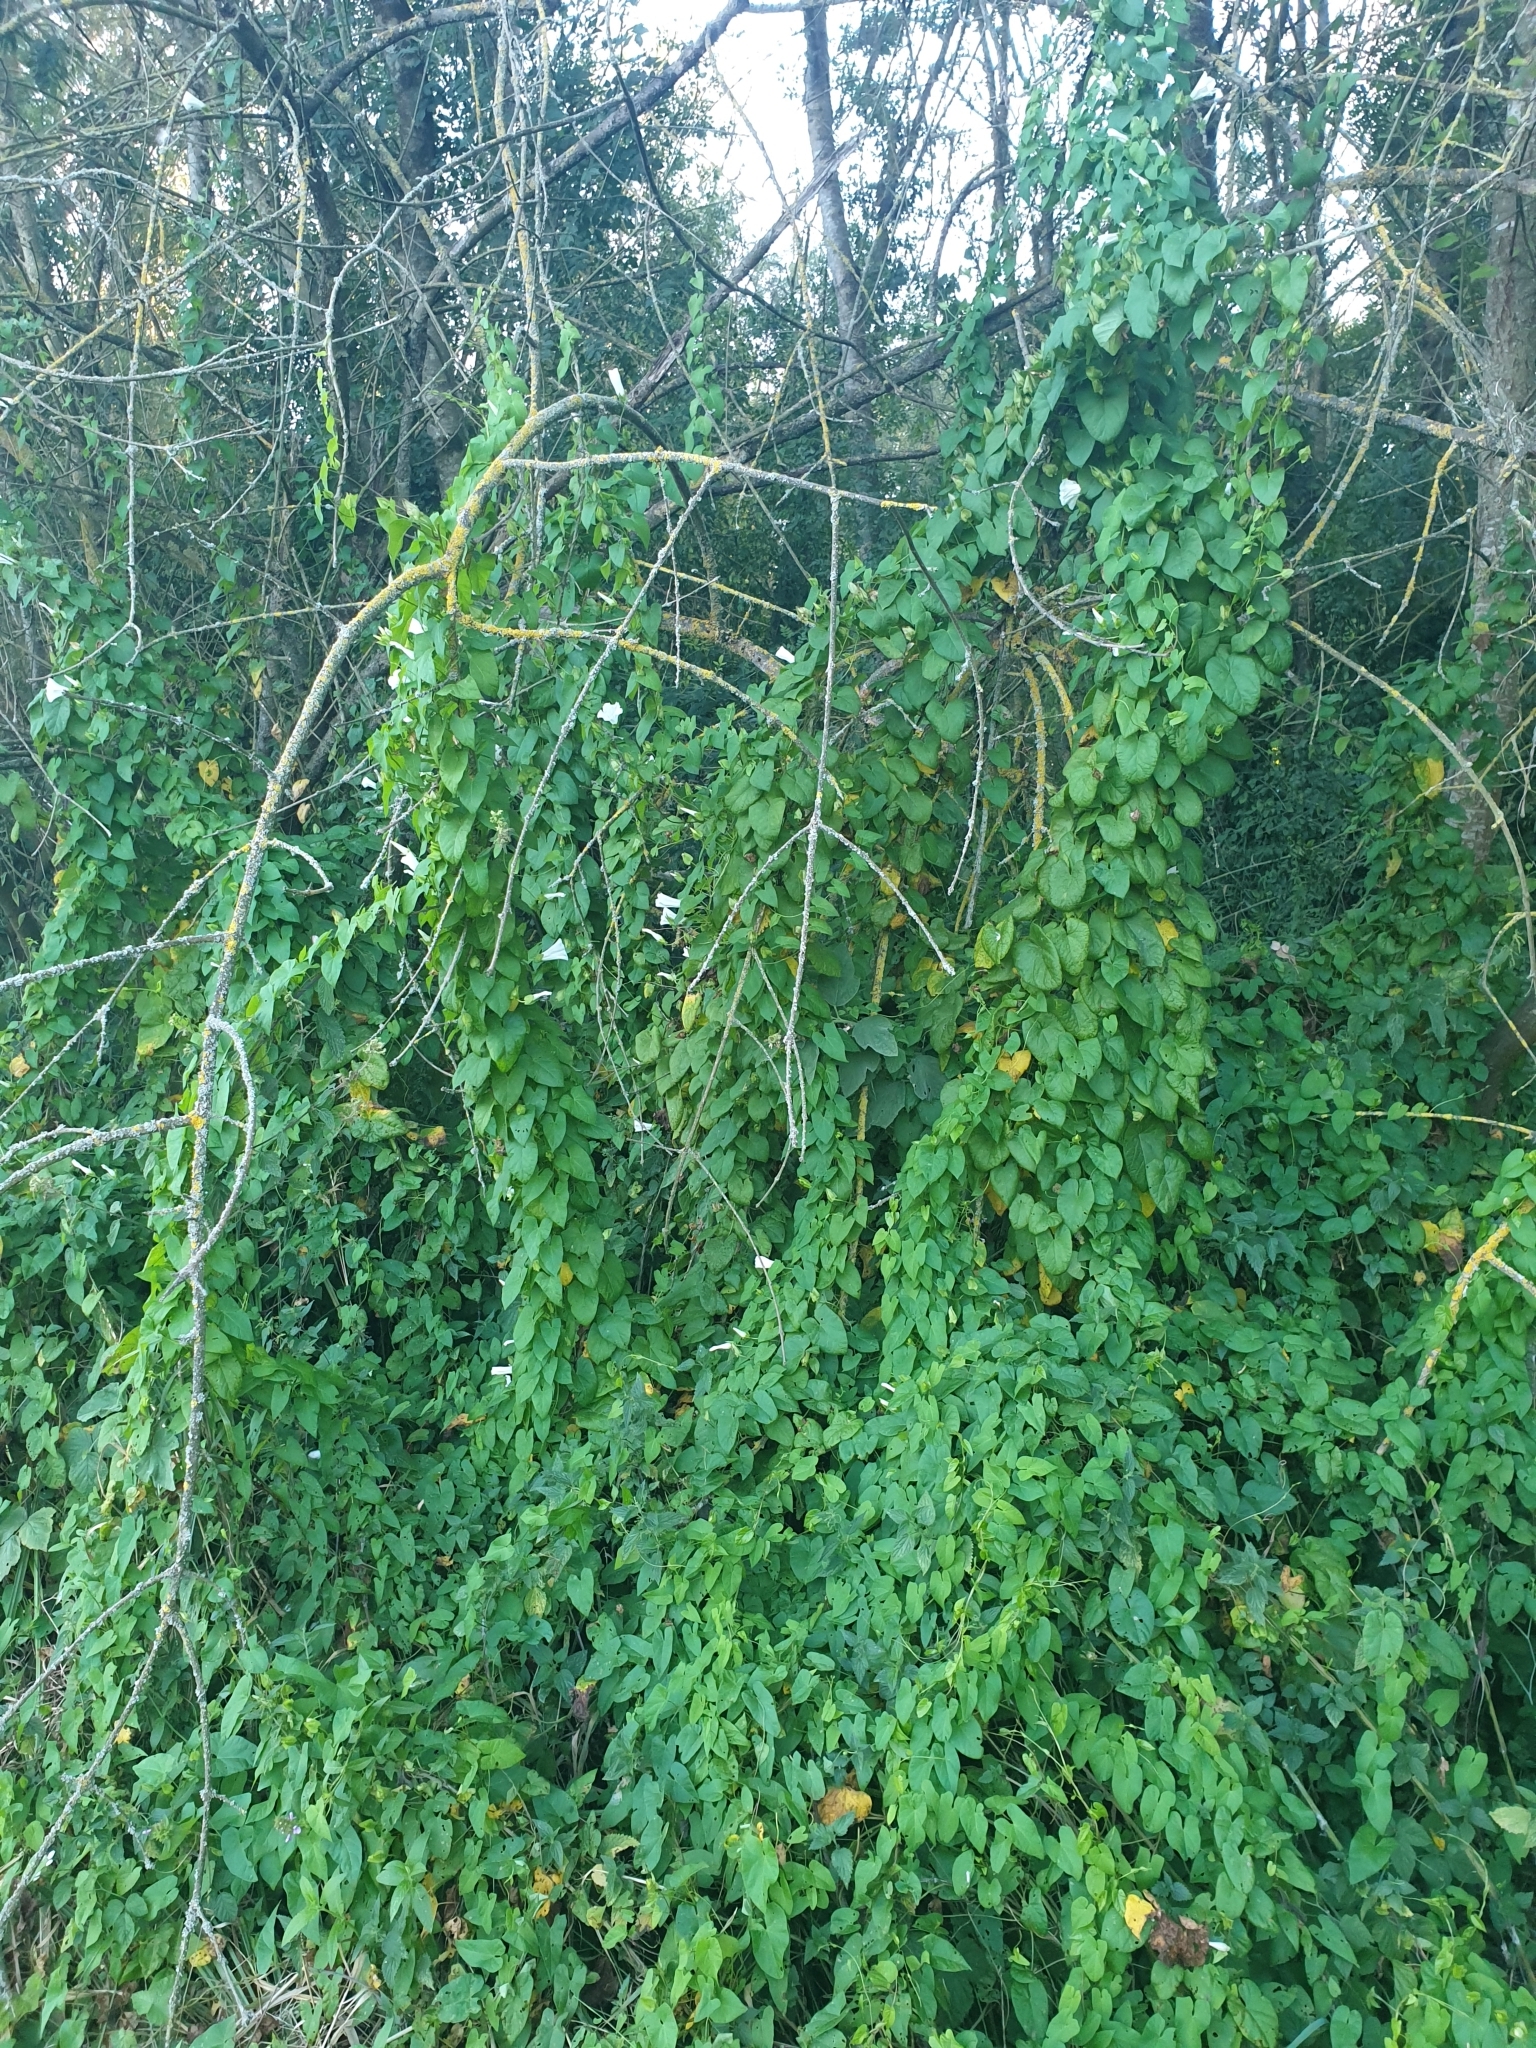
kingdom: Plantae
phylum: Tracheophyta
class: Magnoliopsida
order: Solanales
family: Convolvulaceae
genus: Calystegia
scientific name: Calystegia sepium
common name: Hedge bindweed
